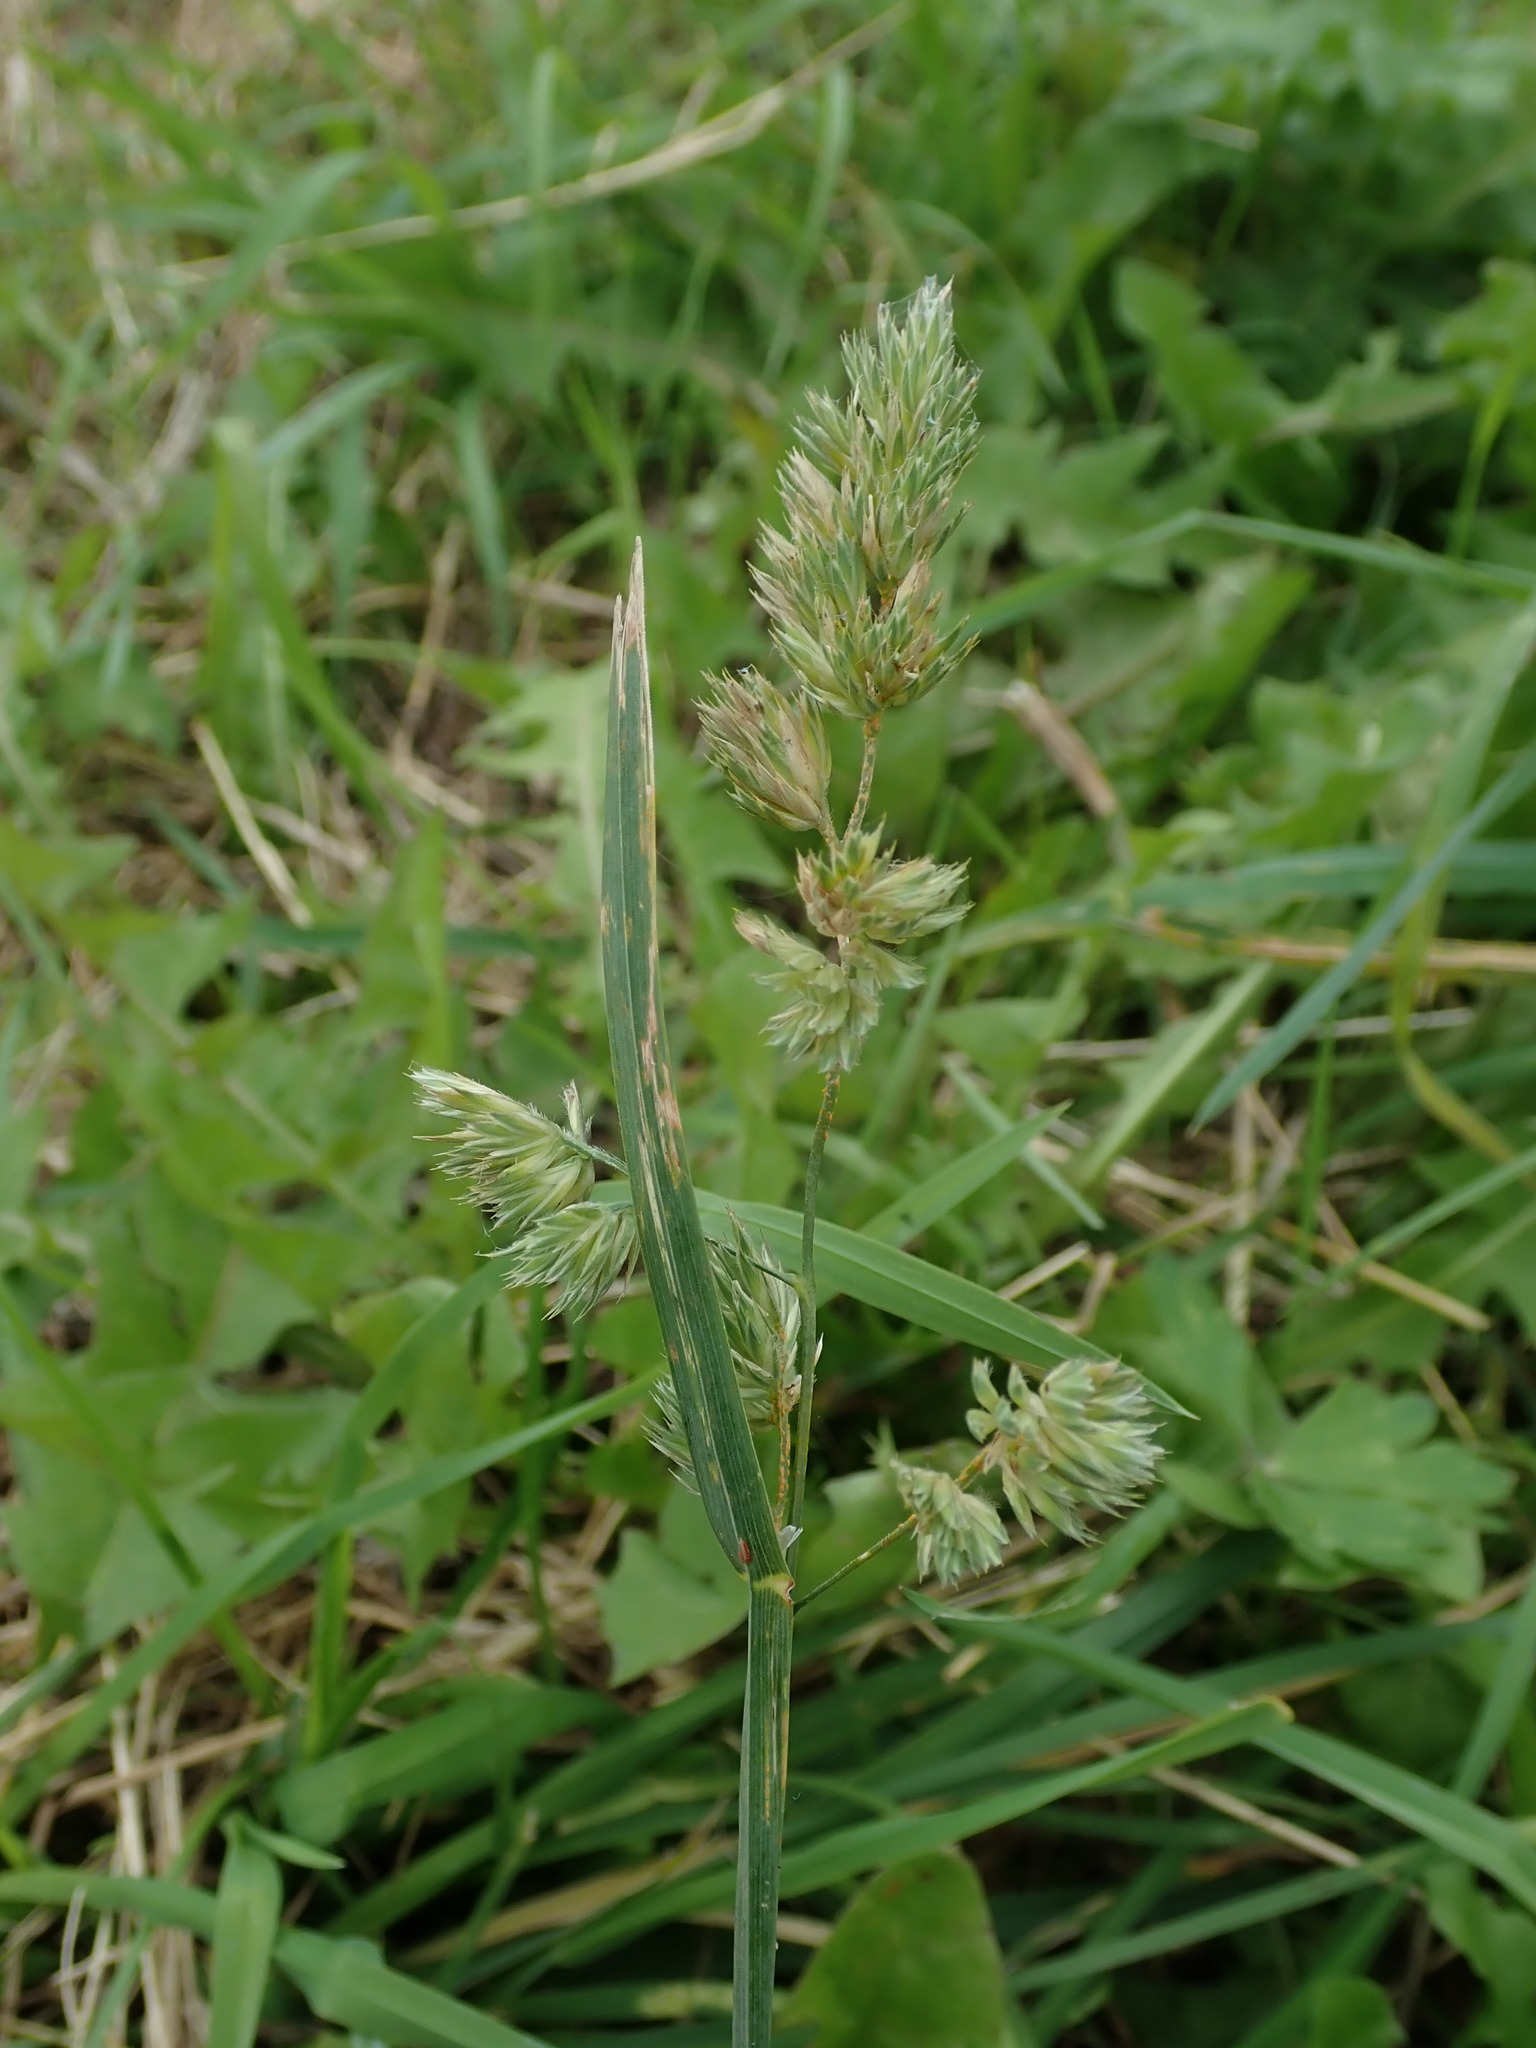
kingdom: Plantae
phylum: Tracheophyta
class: Liliopsida
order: Poales
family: Poaceae
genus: Dactylis
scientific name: Dactylis glomerata
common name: Orchardgrass
